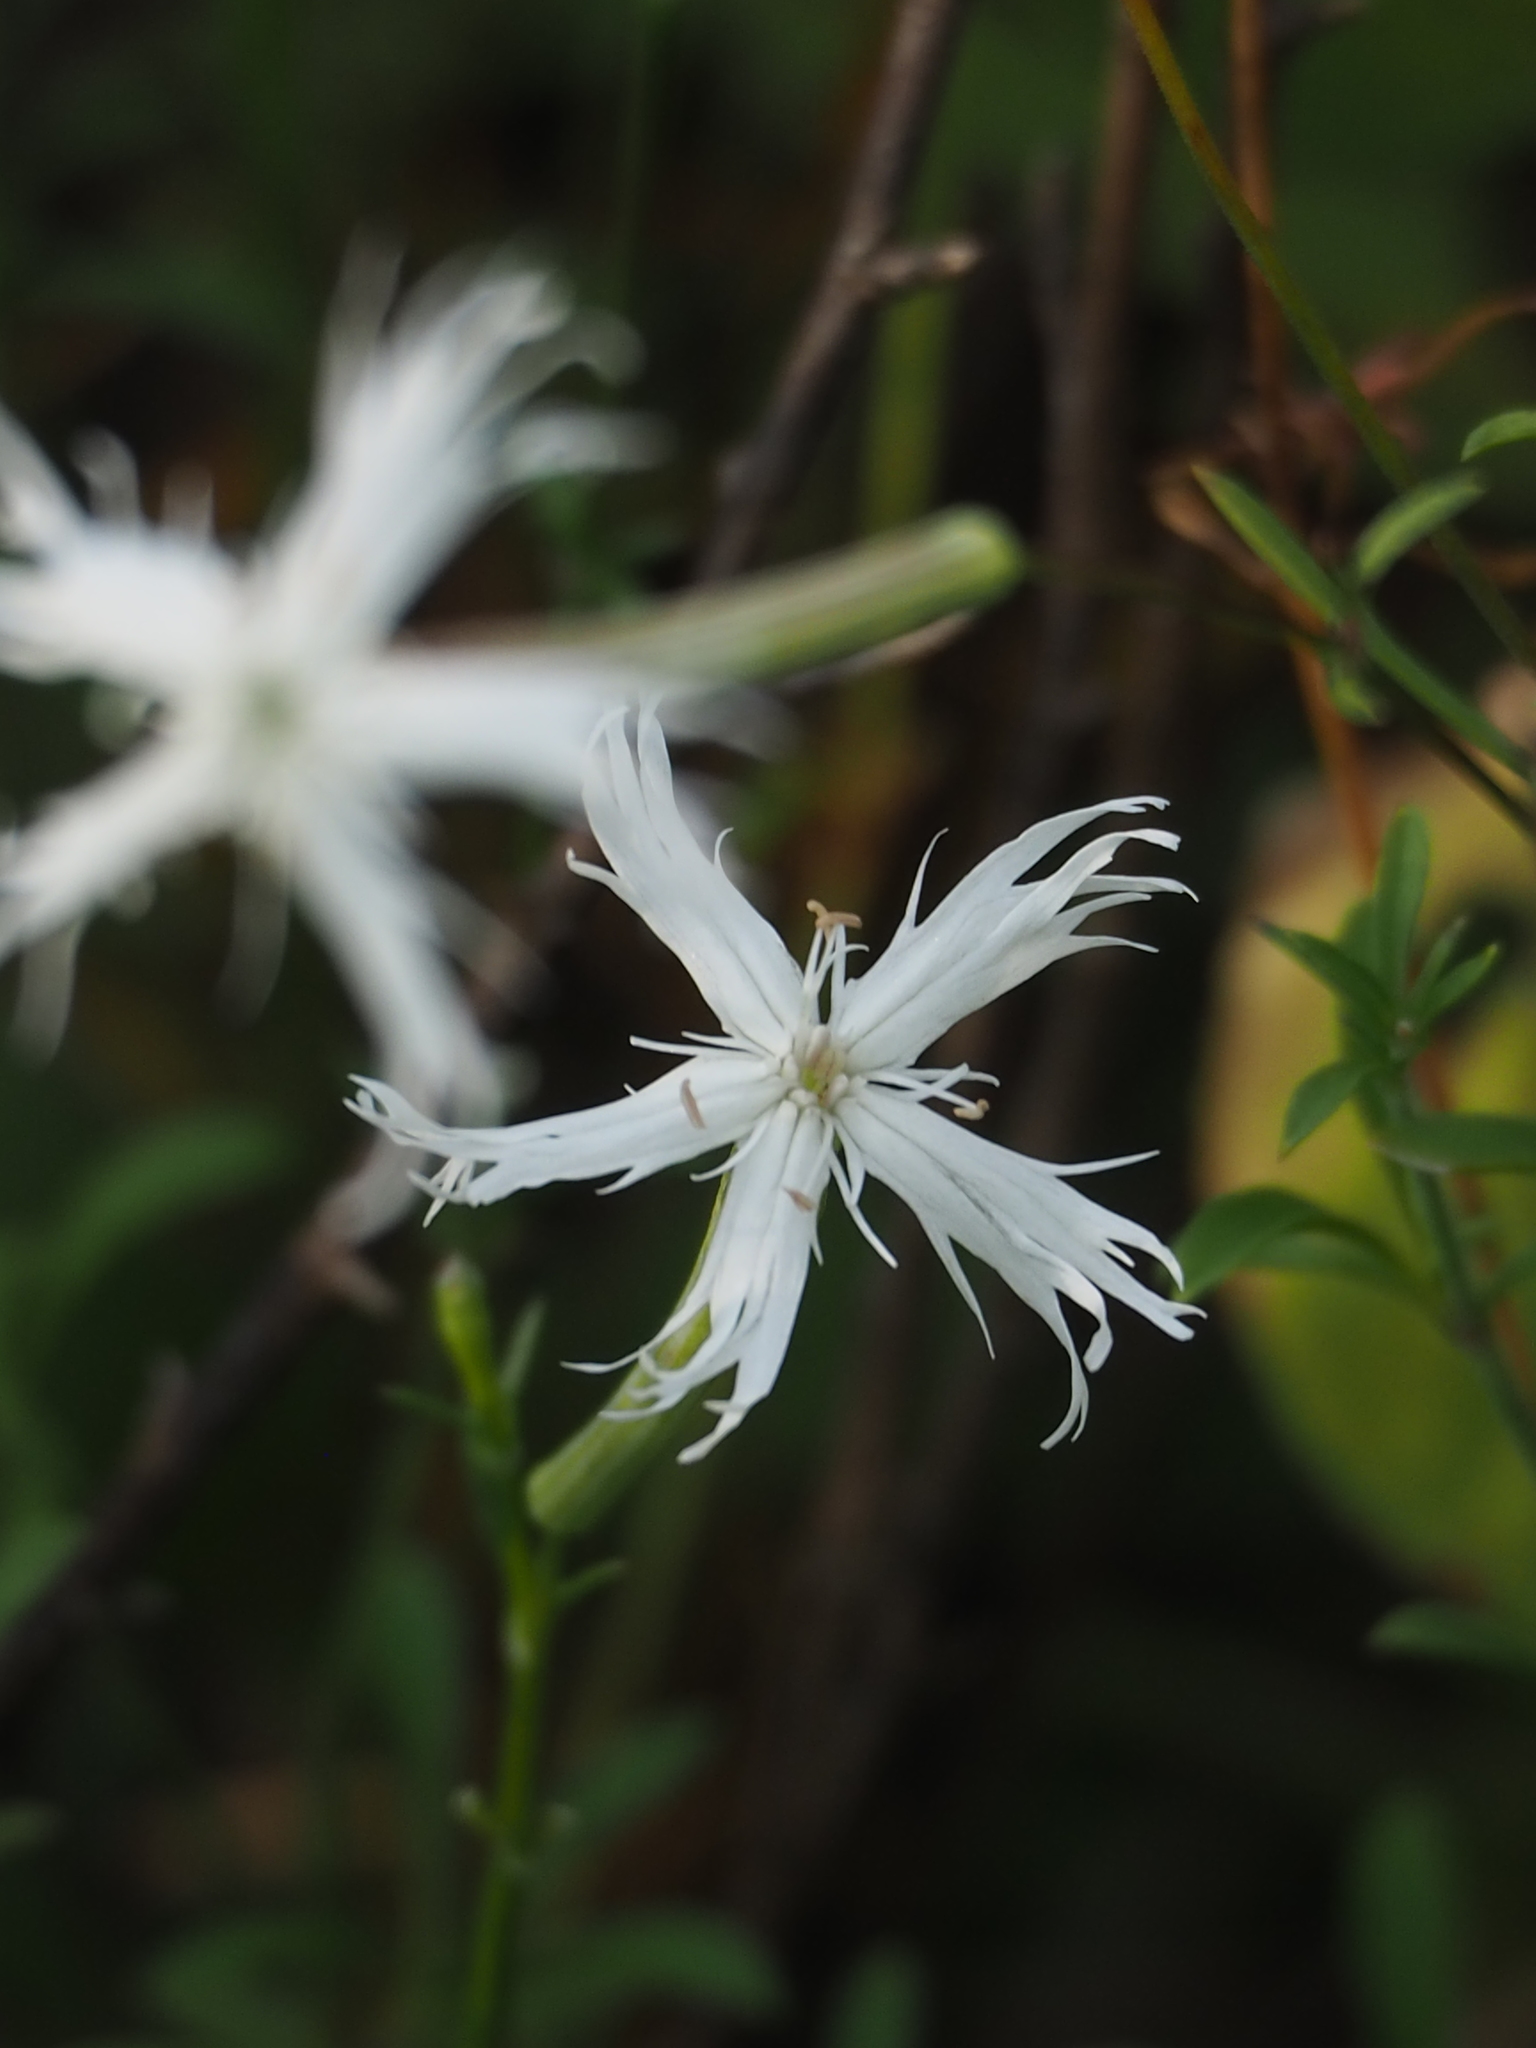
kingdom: Plantae
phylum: Tracheophyta
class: Magnoliopsida
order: Caryophyllales
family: Caryophyllaceae
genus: Silene
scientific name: Silene fissipetala
